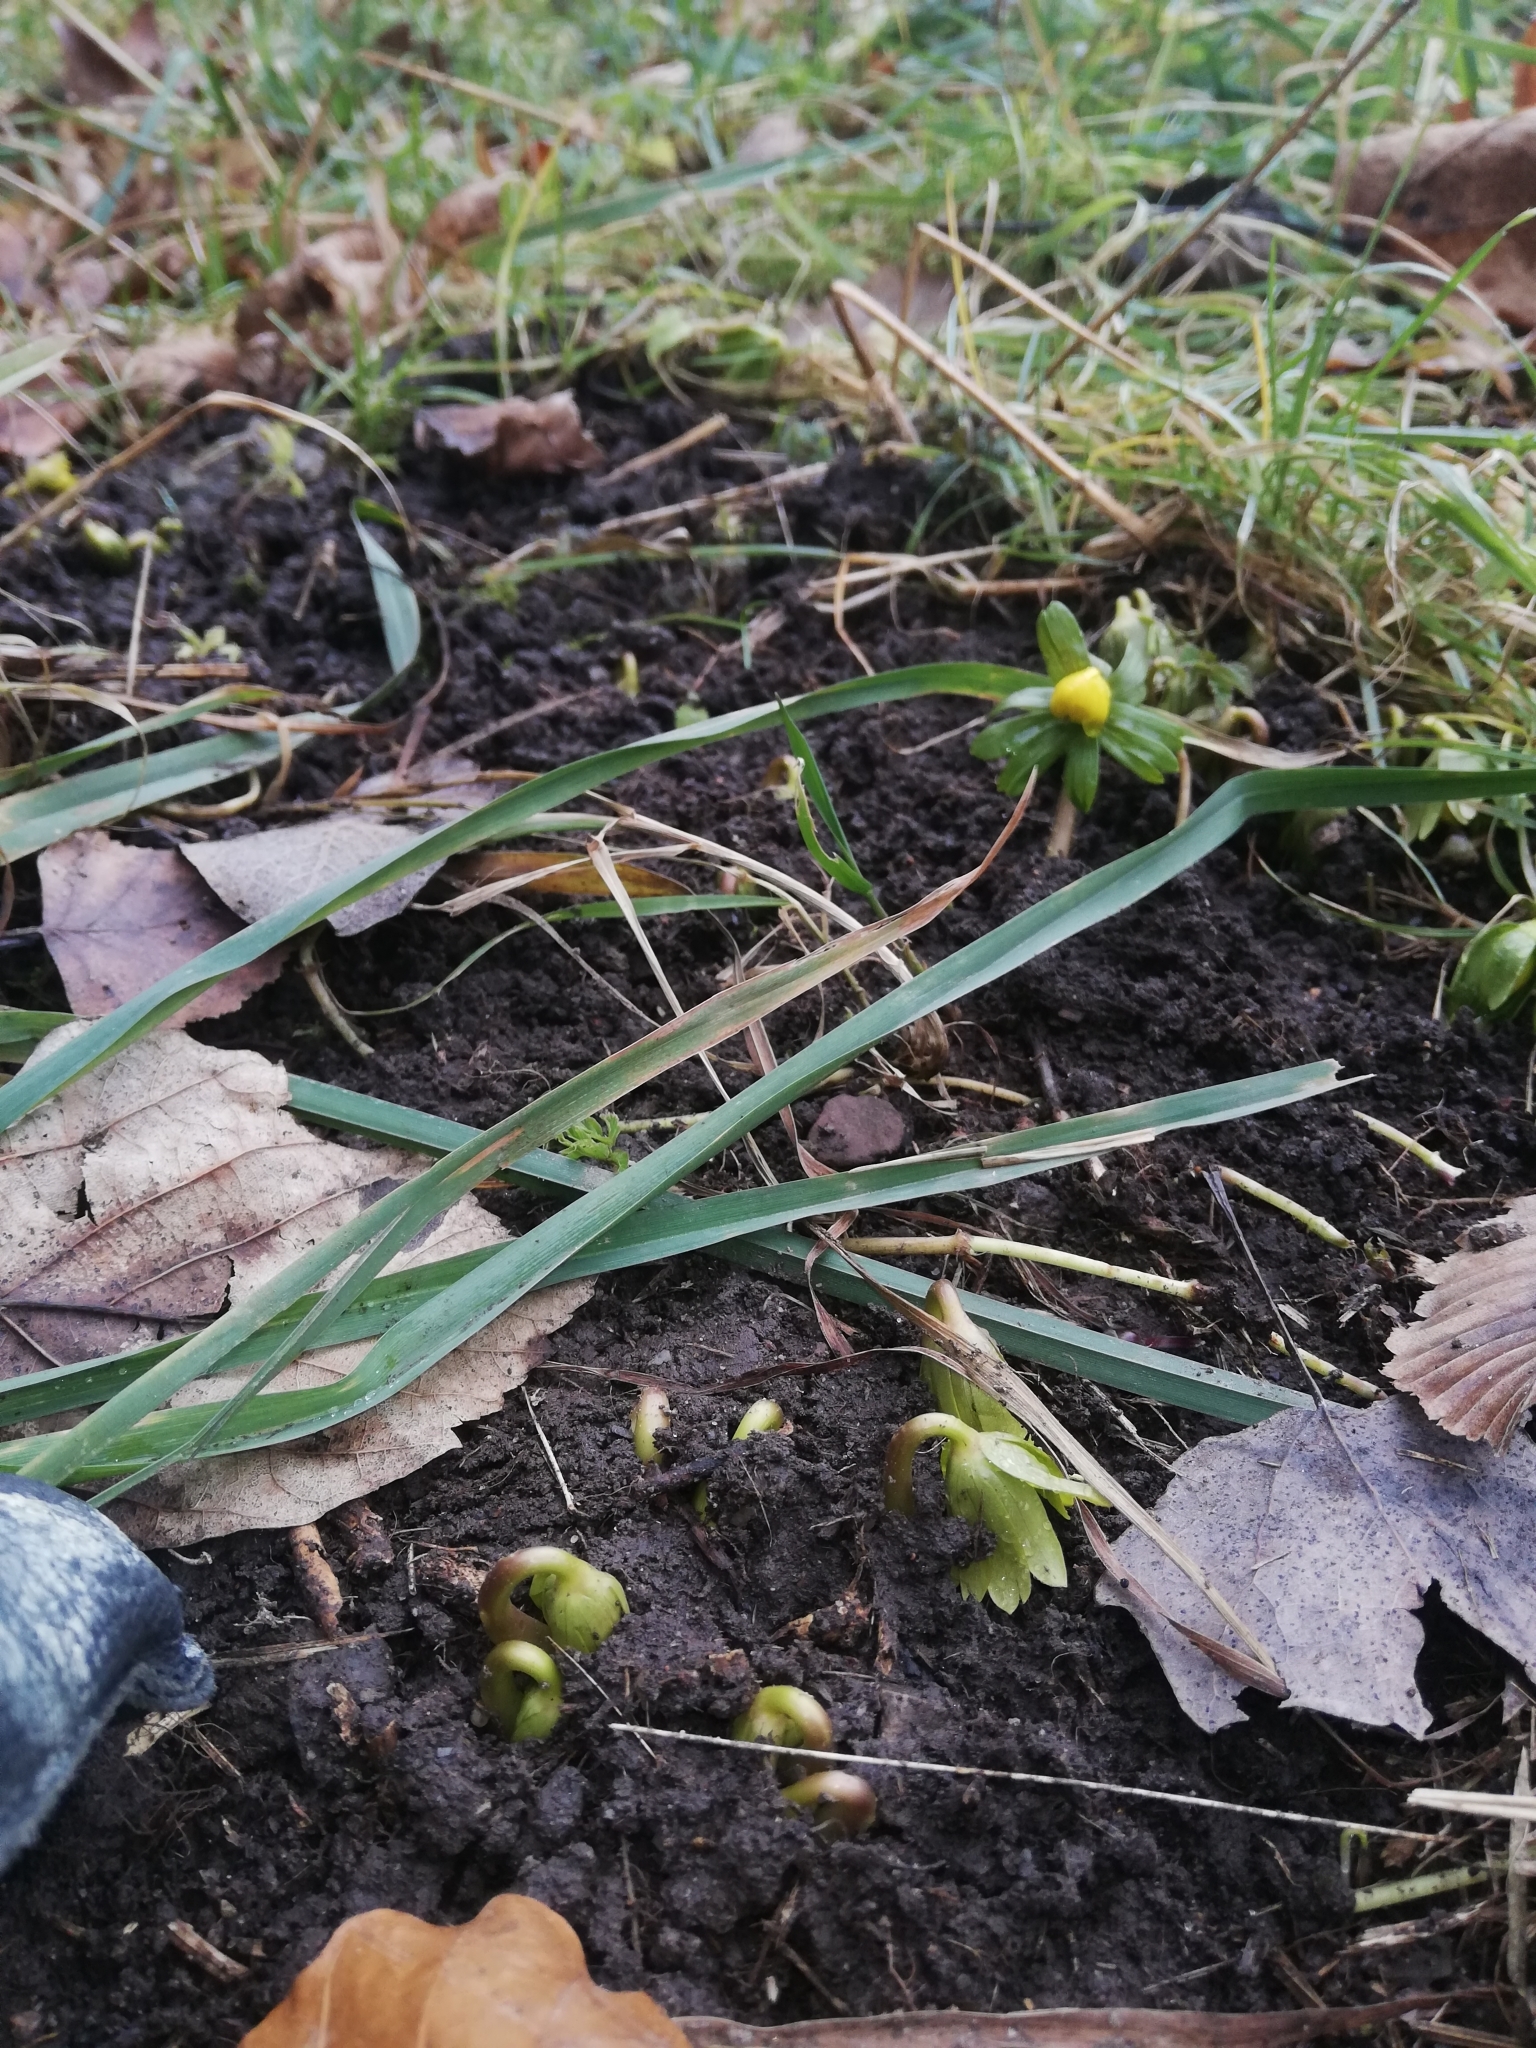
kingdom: Plantae
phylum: Tracheophyta
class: Magnoliopsida
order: Ranunculales
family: Ranunculaceae
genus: Eranthis
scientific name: Eranthis hyemalis
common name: Winter aconite
